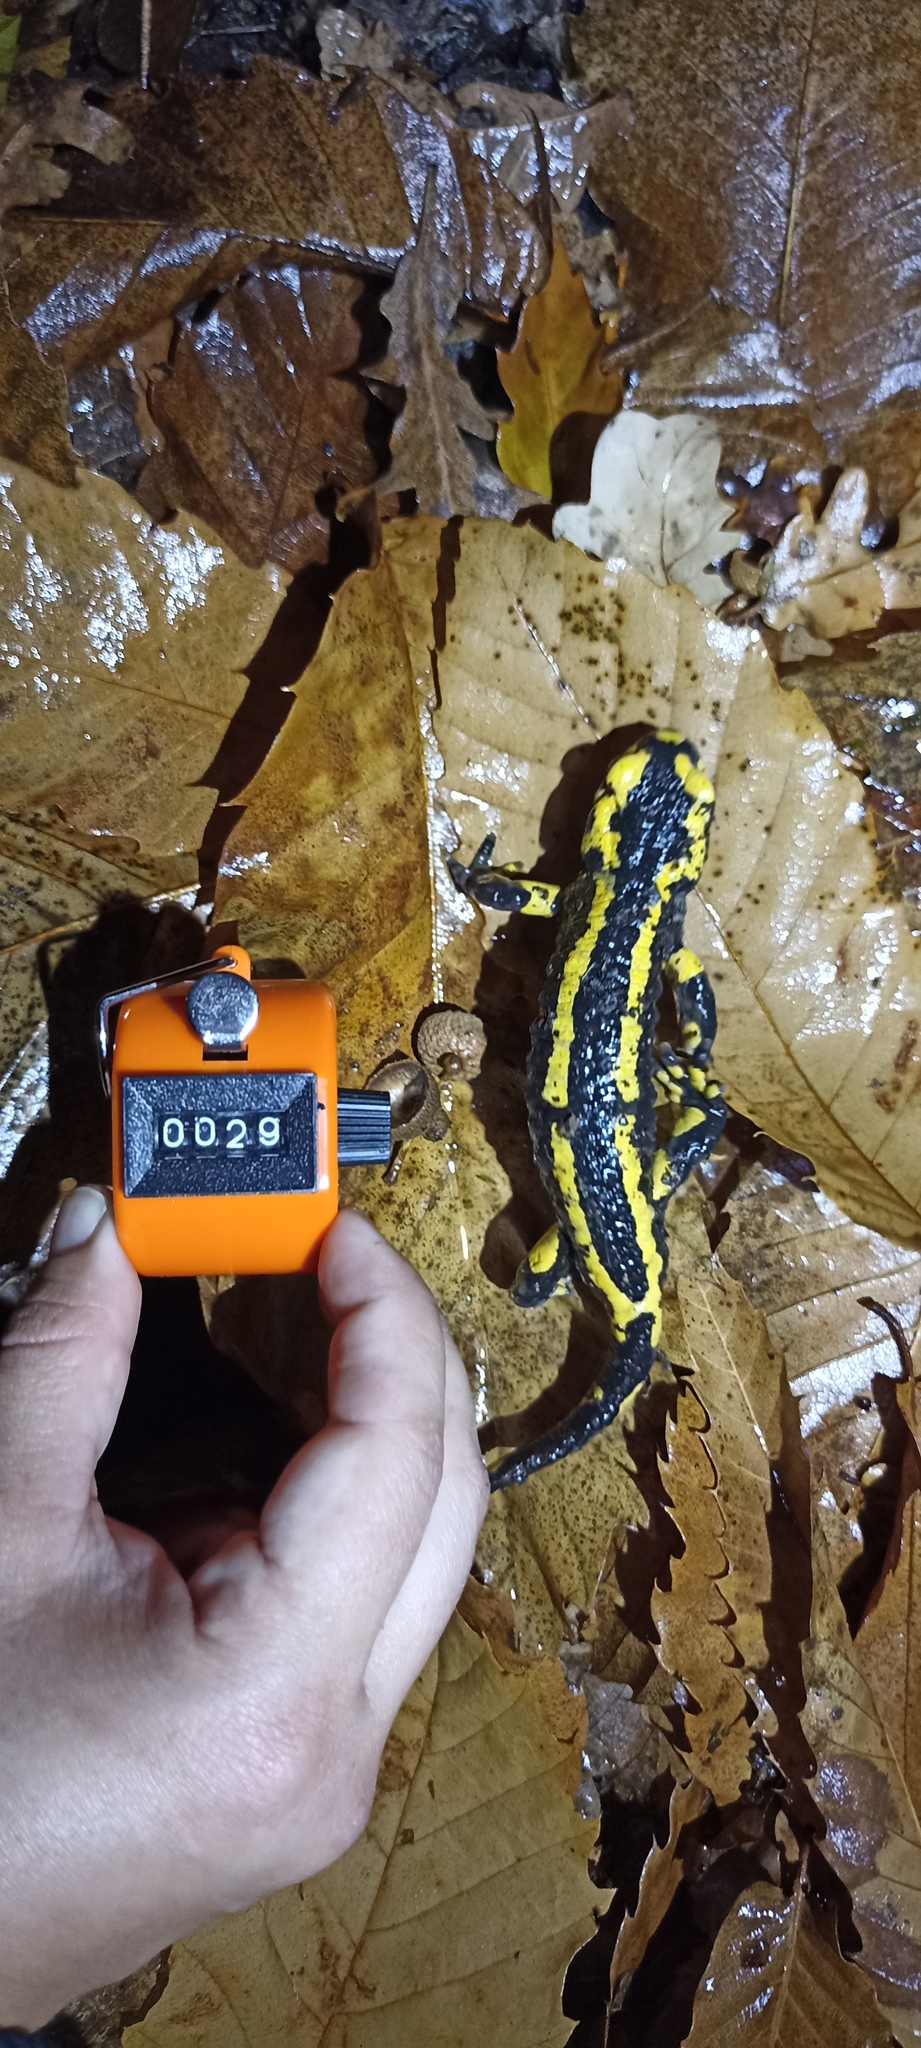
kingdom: Animalia
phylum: Chordata
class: Amphibia
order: Caudata
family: Salamandridae
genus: Salamandra
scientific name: Salamandra salamandra
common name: Fire salamander
